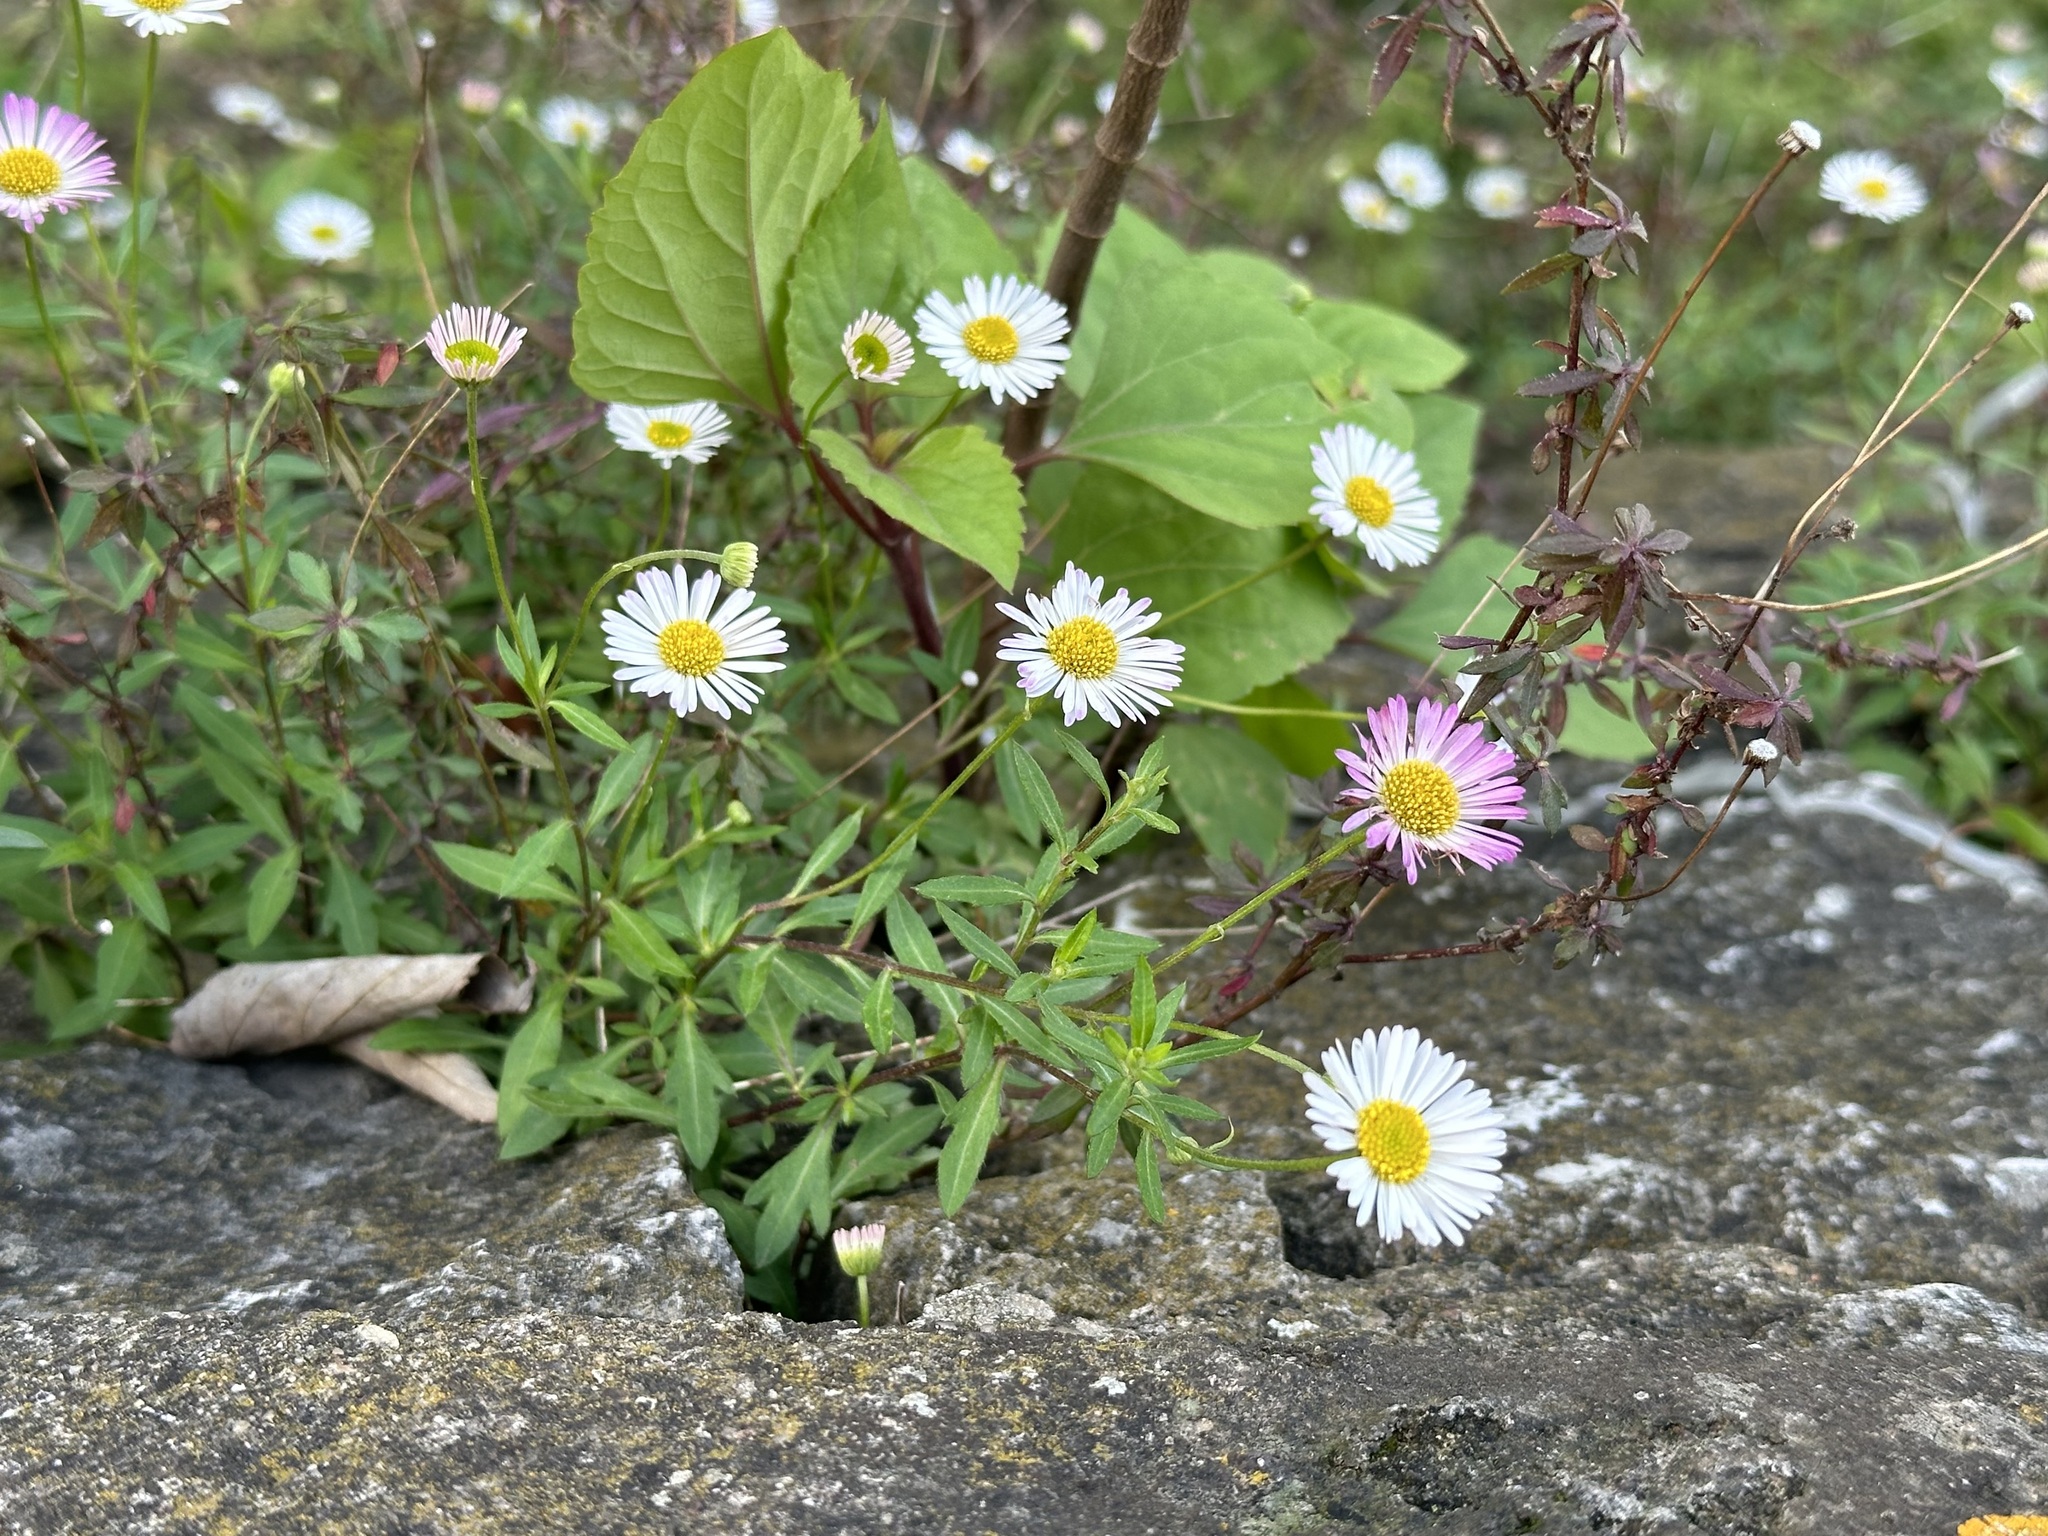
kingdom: Plantae
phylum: Tracheophyta
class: Magnoliopsida
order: Asterales
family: Asteraceae
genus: Erigeron
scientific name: Erigeron karvinskianus
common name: Mexican fleabane
